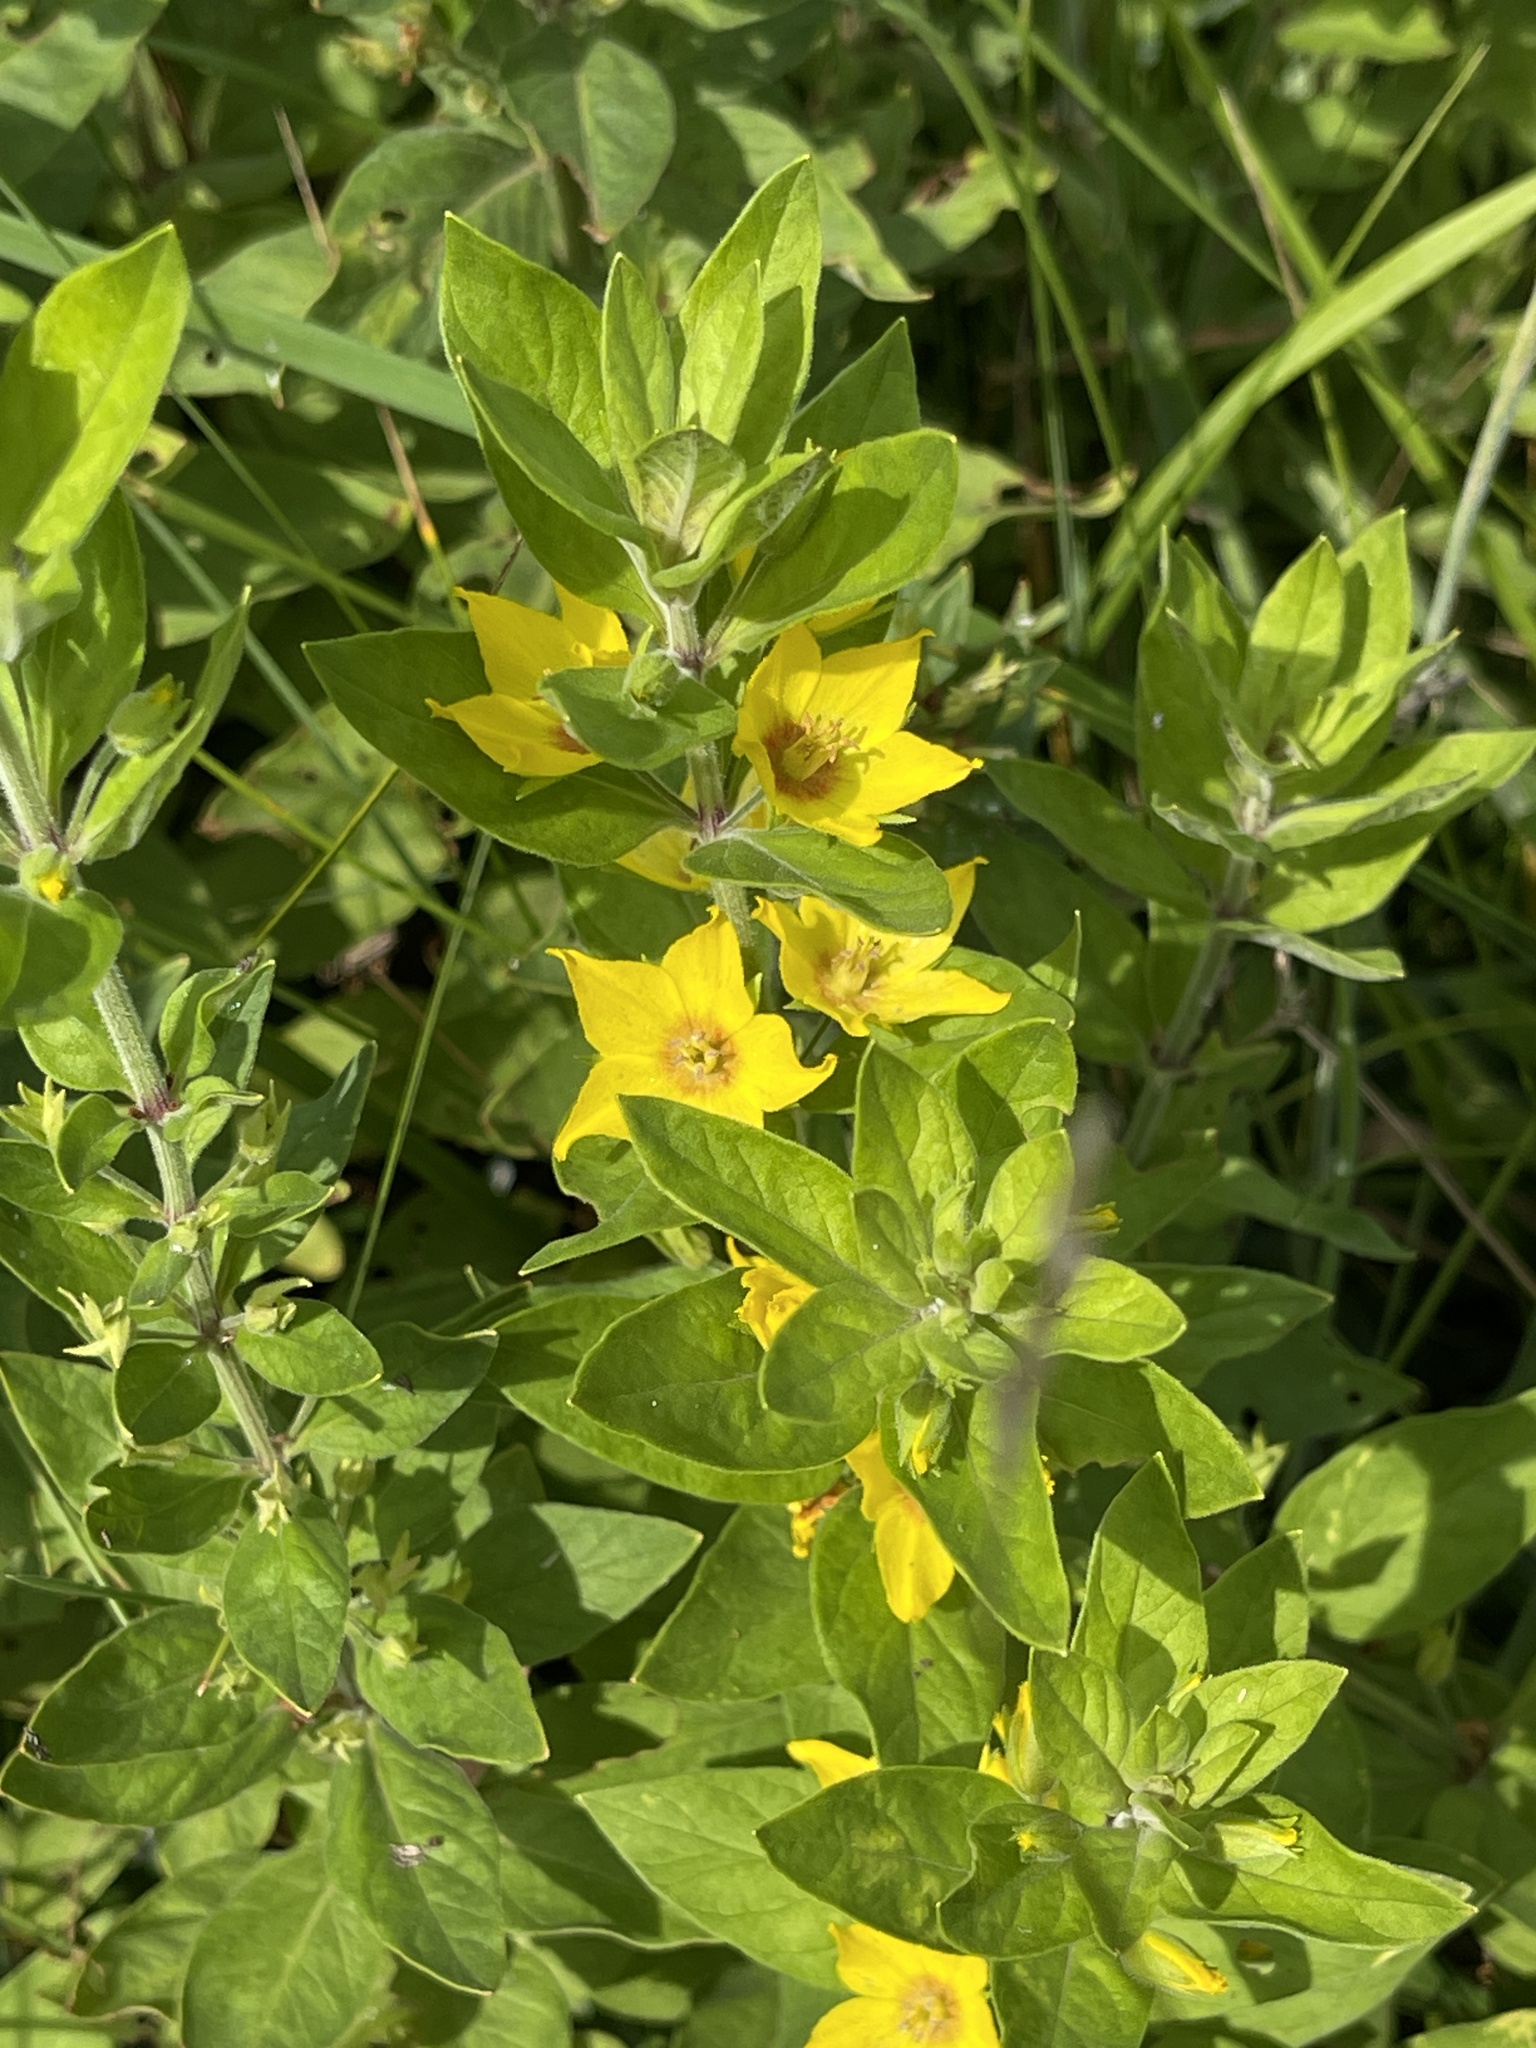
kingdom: Plantae
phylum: Tracheophyta
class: Magnoliopsida
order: Ericales
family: Primulaceae
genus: Lysimachia
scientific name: Lysimachia punctata
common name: Dotted loosestrife
